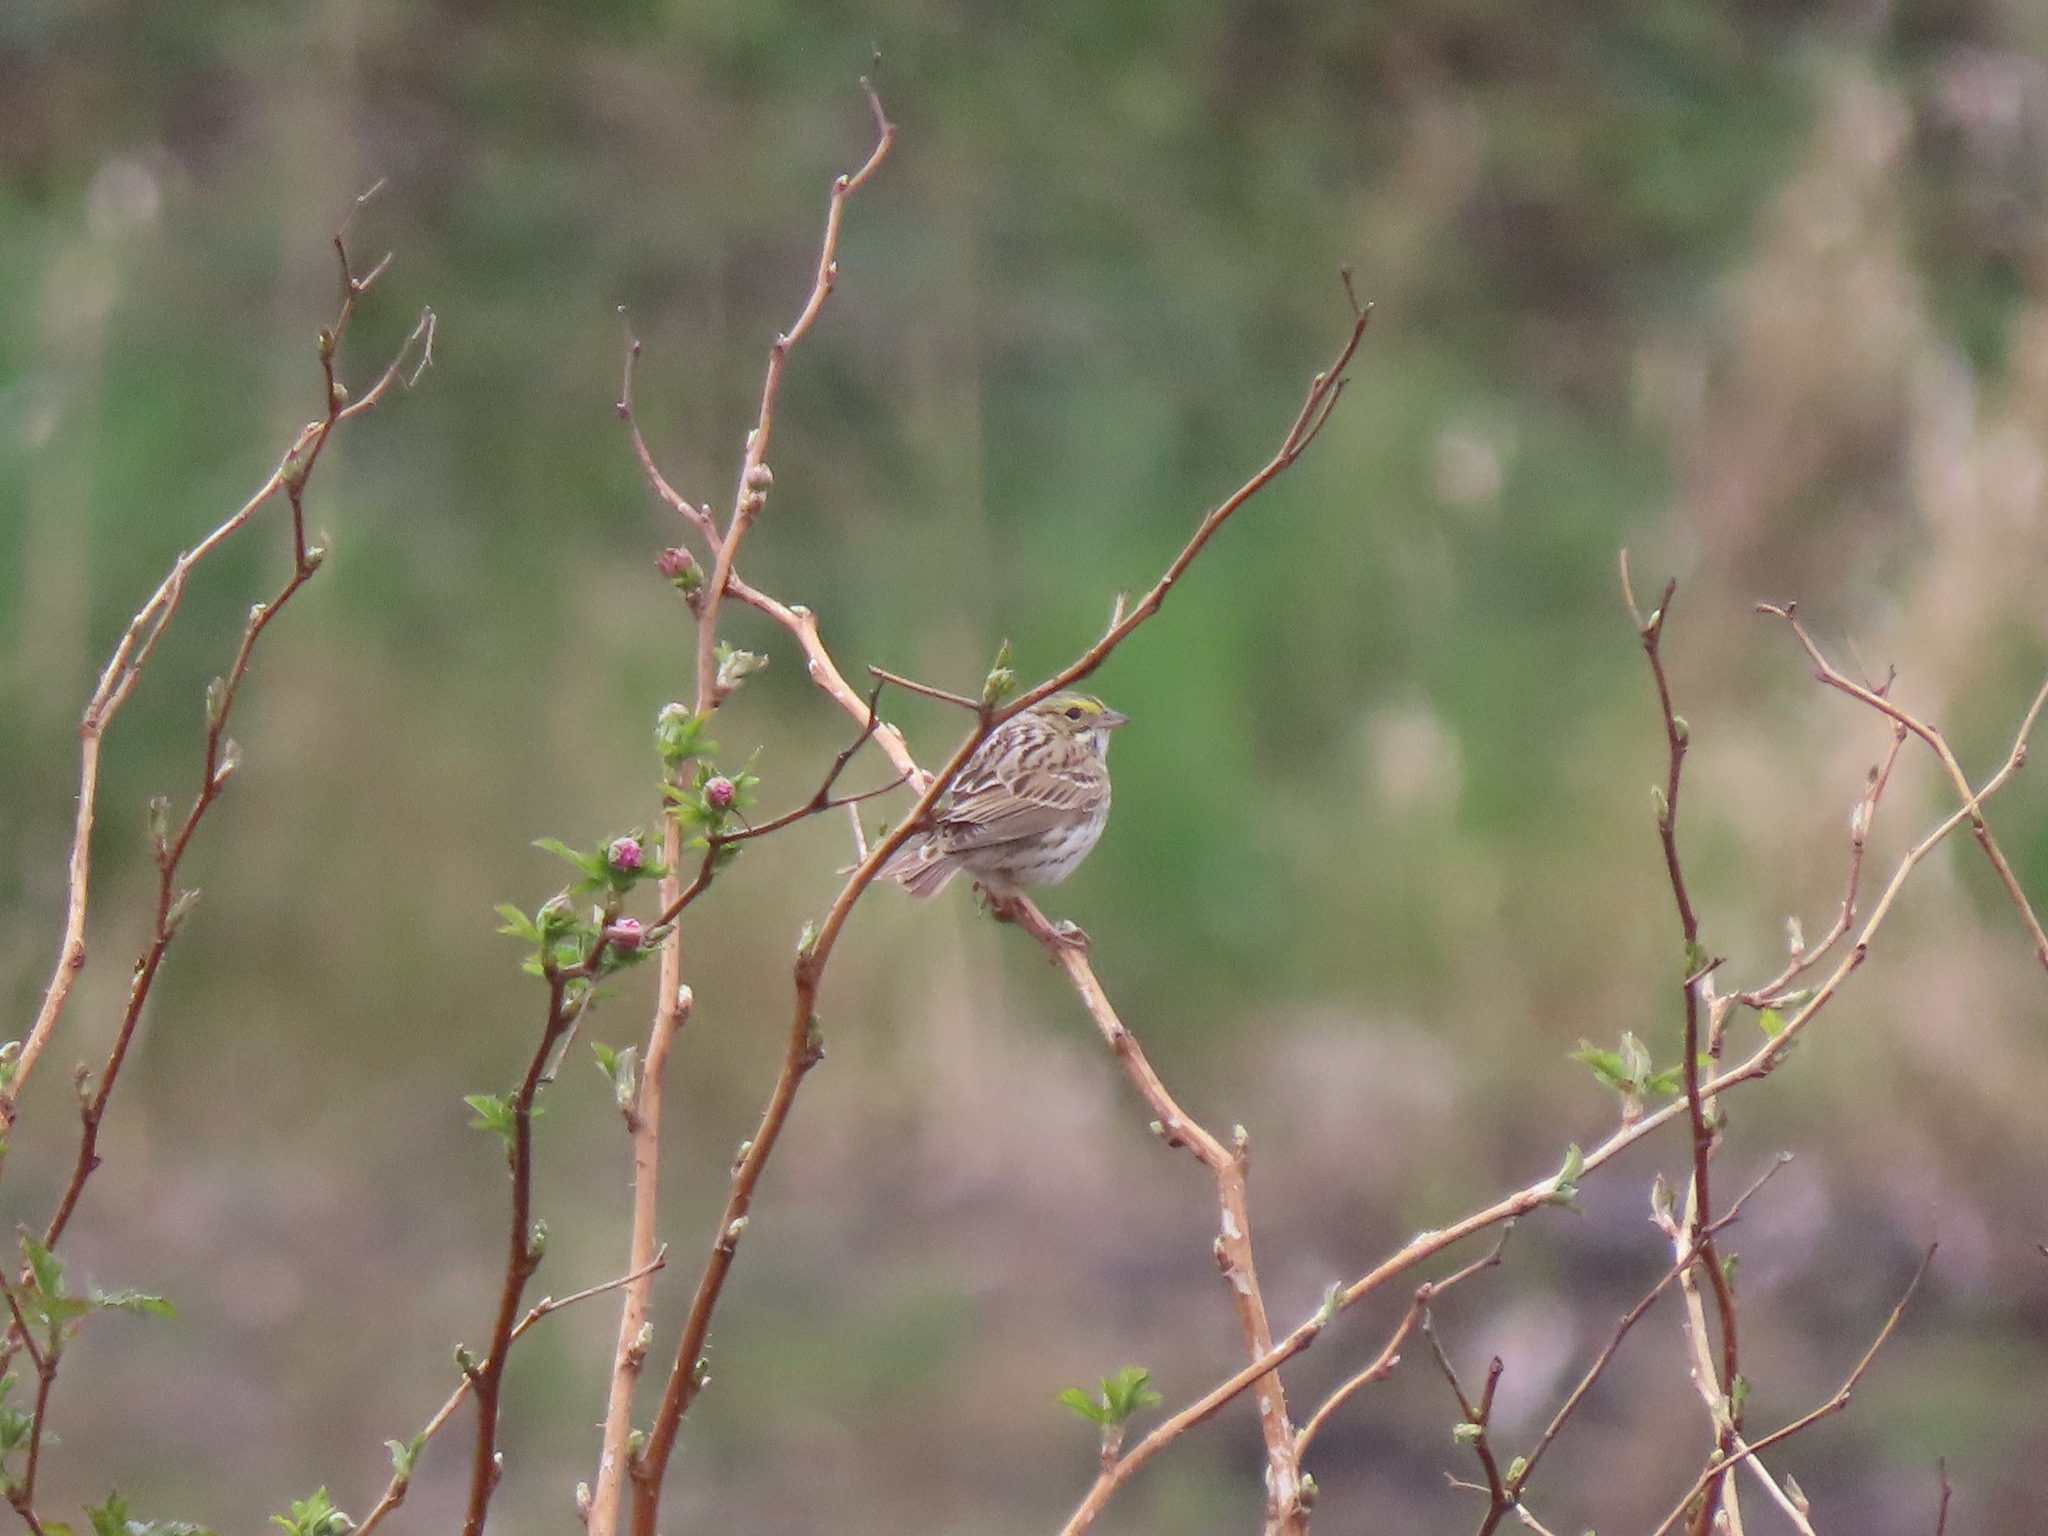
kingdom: Animalia
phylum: Chordata
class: Aves
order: Passeriformes
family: Passerellidae
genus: Passerculus
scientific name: Passerculus sandwichensis
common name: Savannah sparrow
